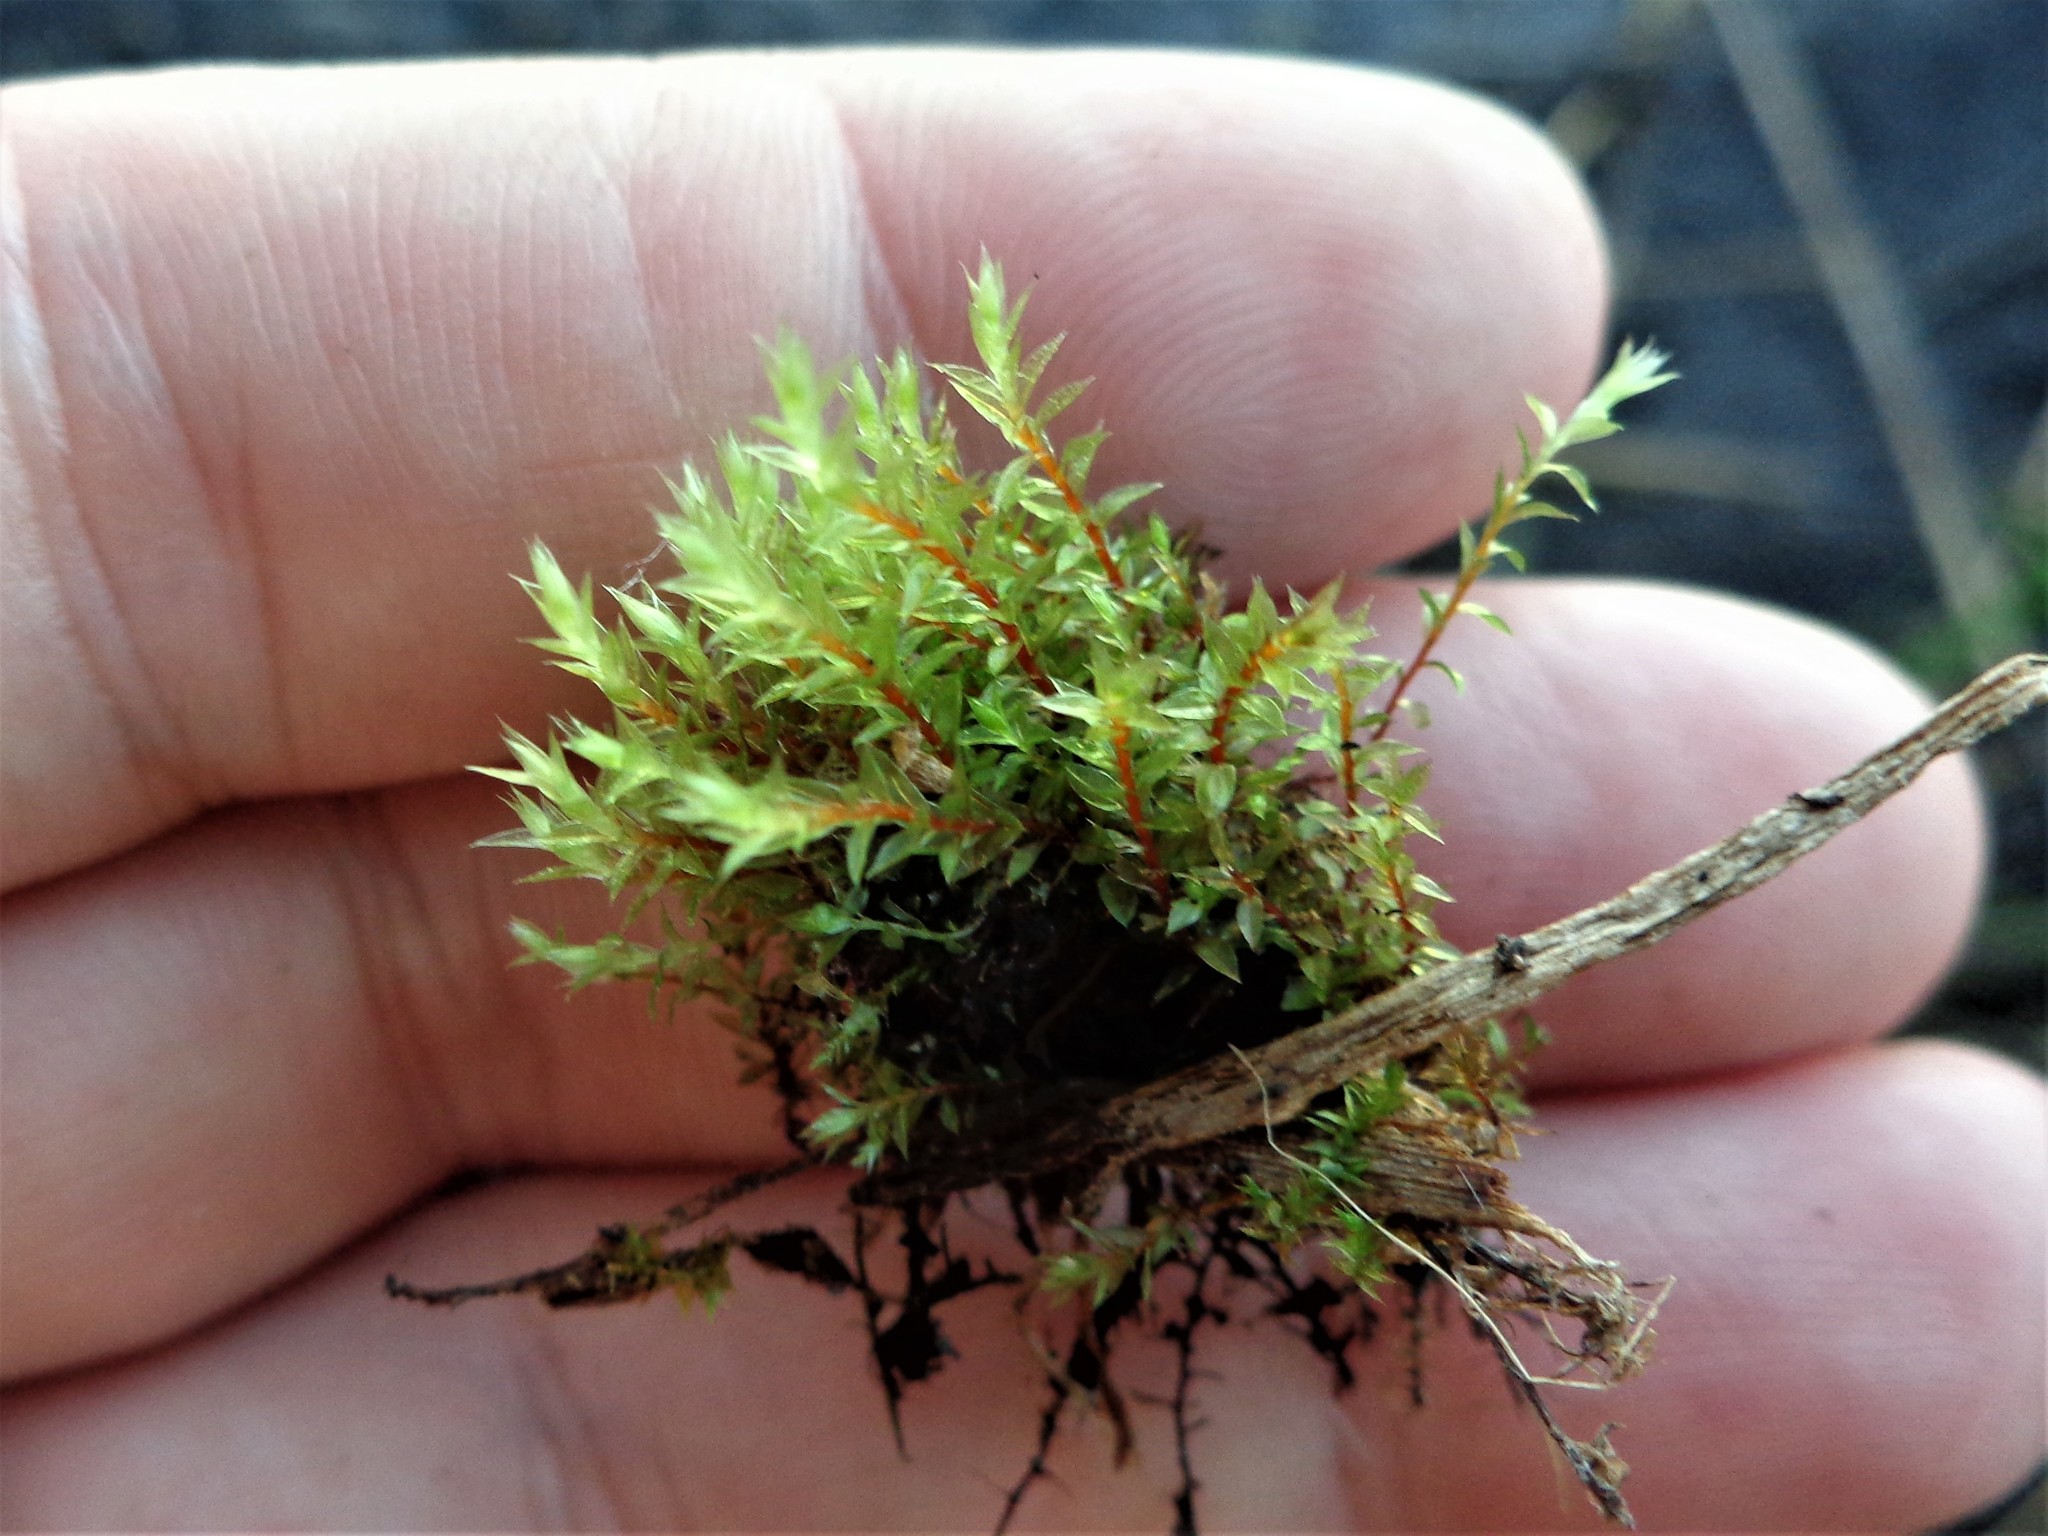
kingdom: Plantae
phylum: Bryophyta
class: Bryopsida
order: Bryales
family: Bryaceae
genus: Ptychostomum
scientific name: Ptychostomum pseudotriquetrum
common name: Long-leaved thread moss
